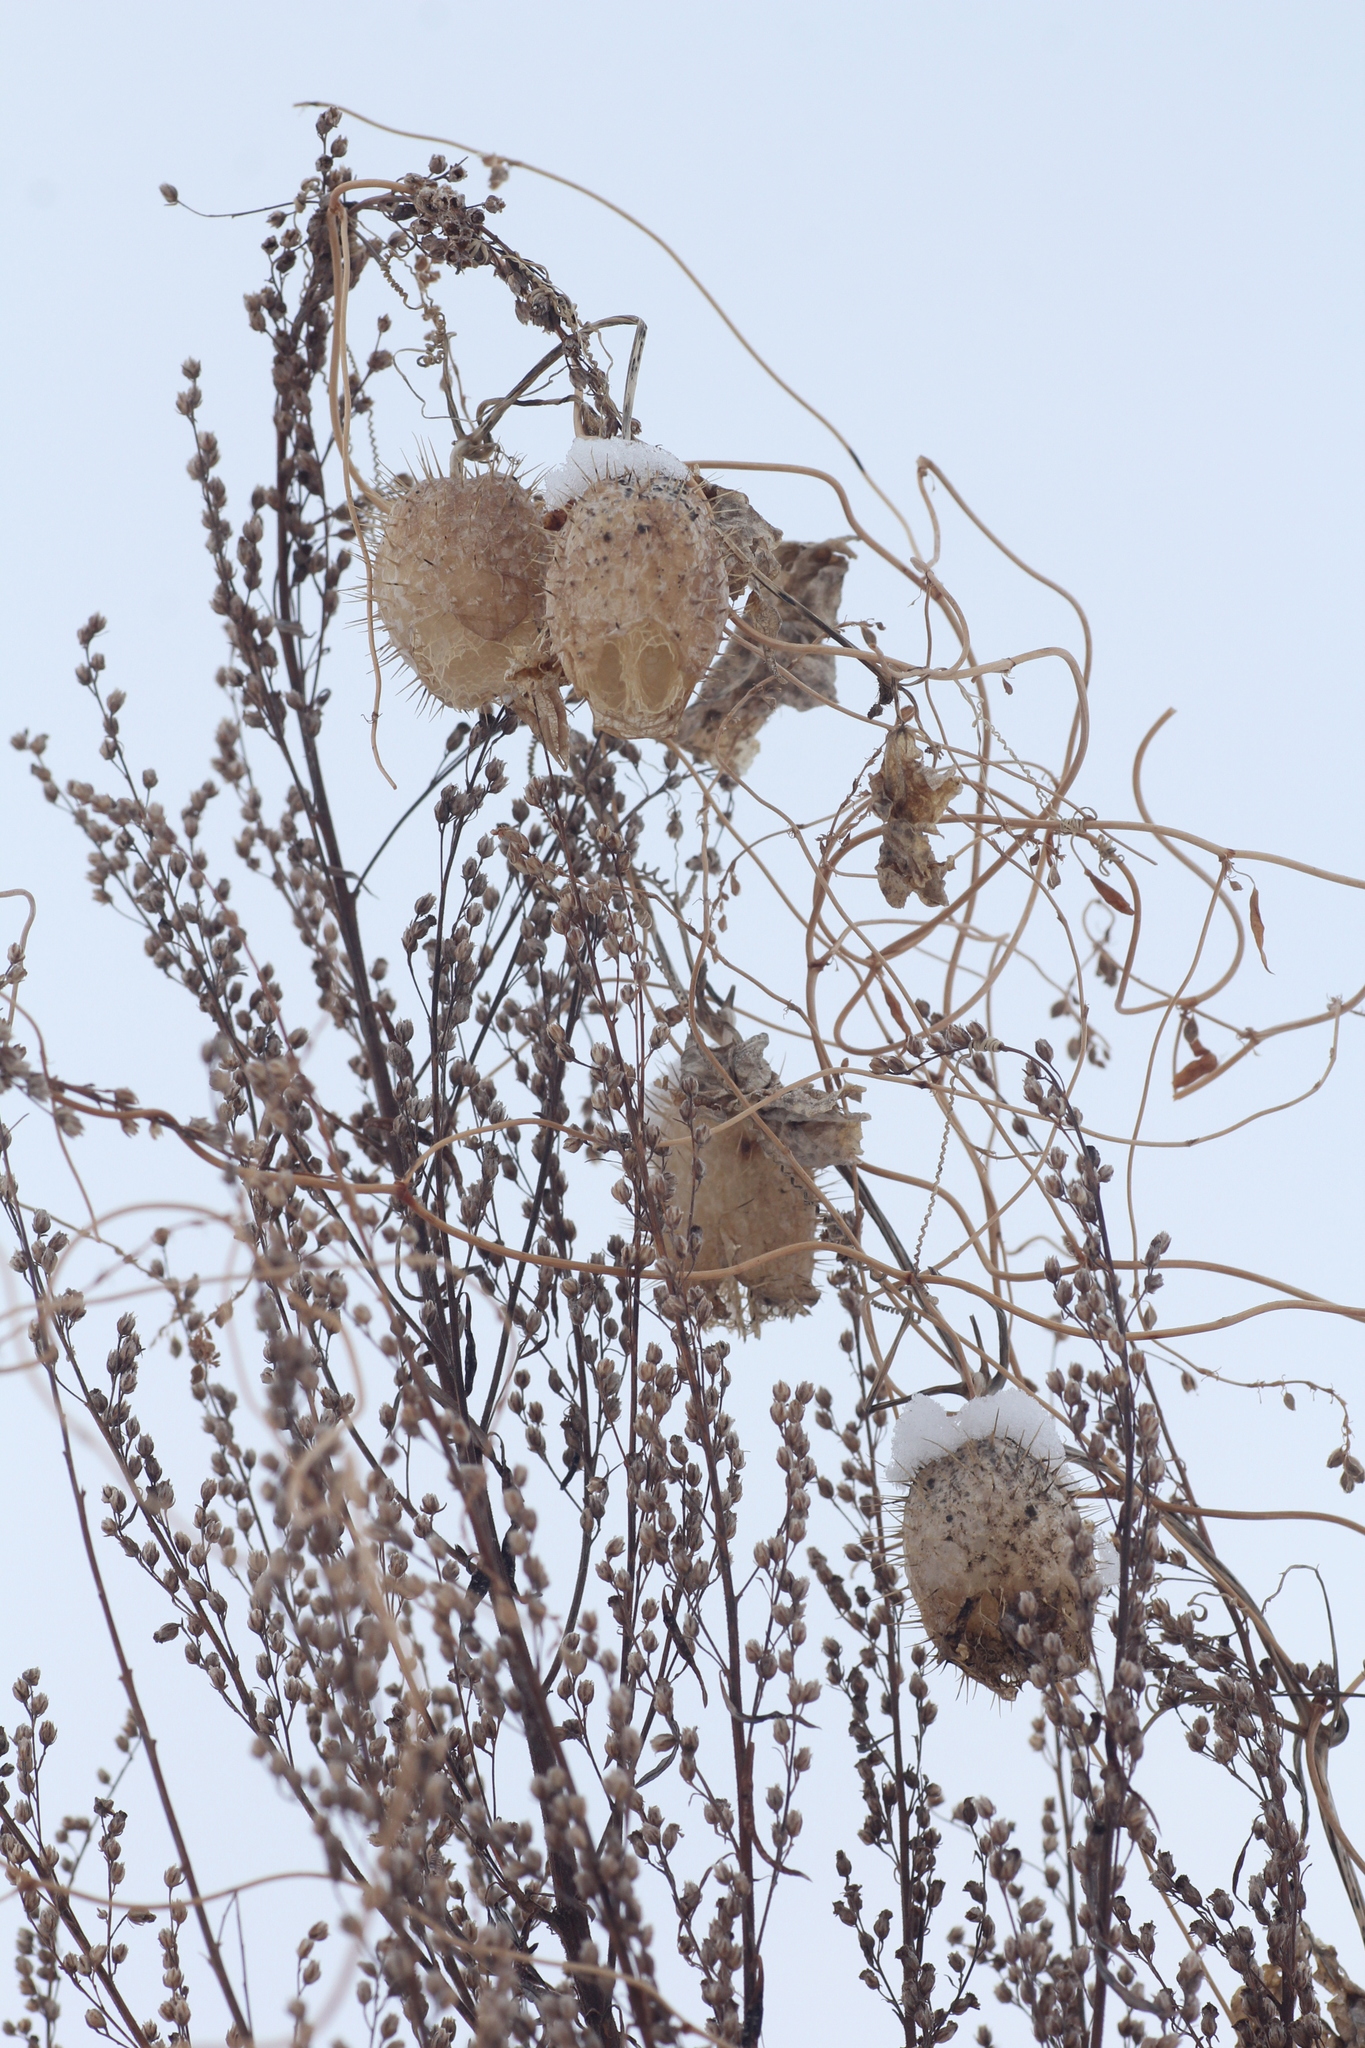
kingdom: Plantae
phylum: Tracheophyta
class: Magnoliopsida
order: Cucurbitales
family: Cucurbitaceae
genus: Echinocystis
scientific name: Echinocystis lobata
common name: Wild cucumber
